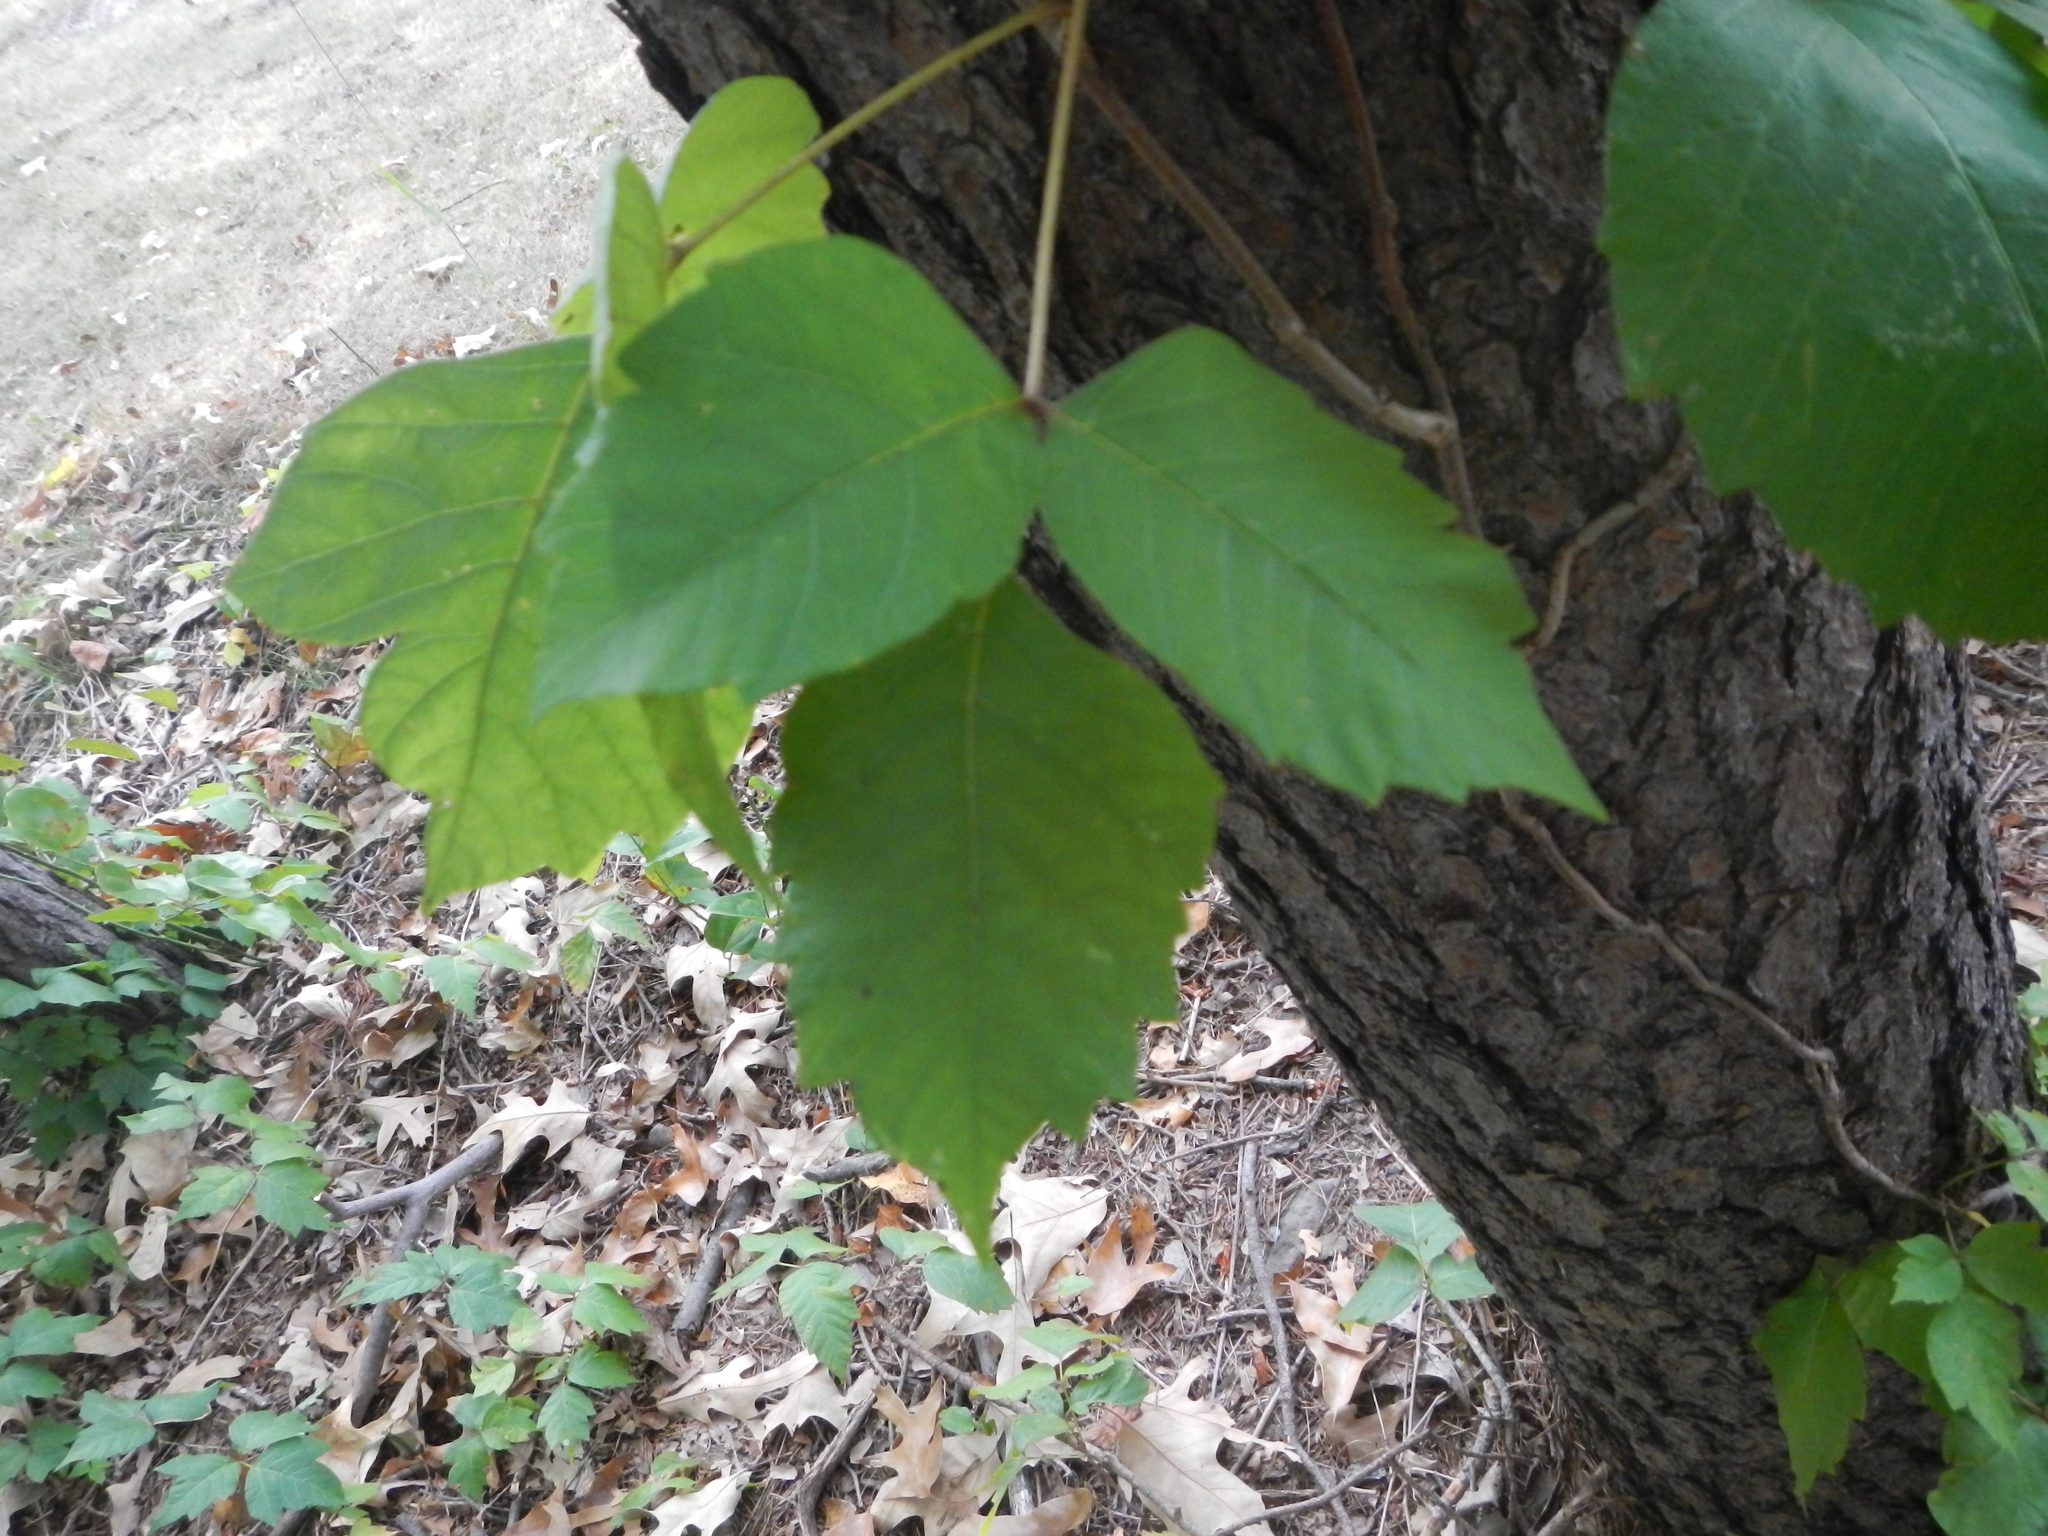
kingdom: Plantae
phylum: Tracheophyta
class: Magnoliopsida
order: Sapindales
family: Anacardiaceae
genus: Toxicodendron
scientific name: Toxicodendron radicans
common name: Poison ivy
